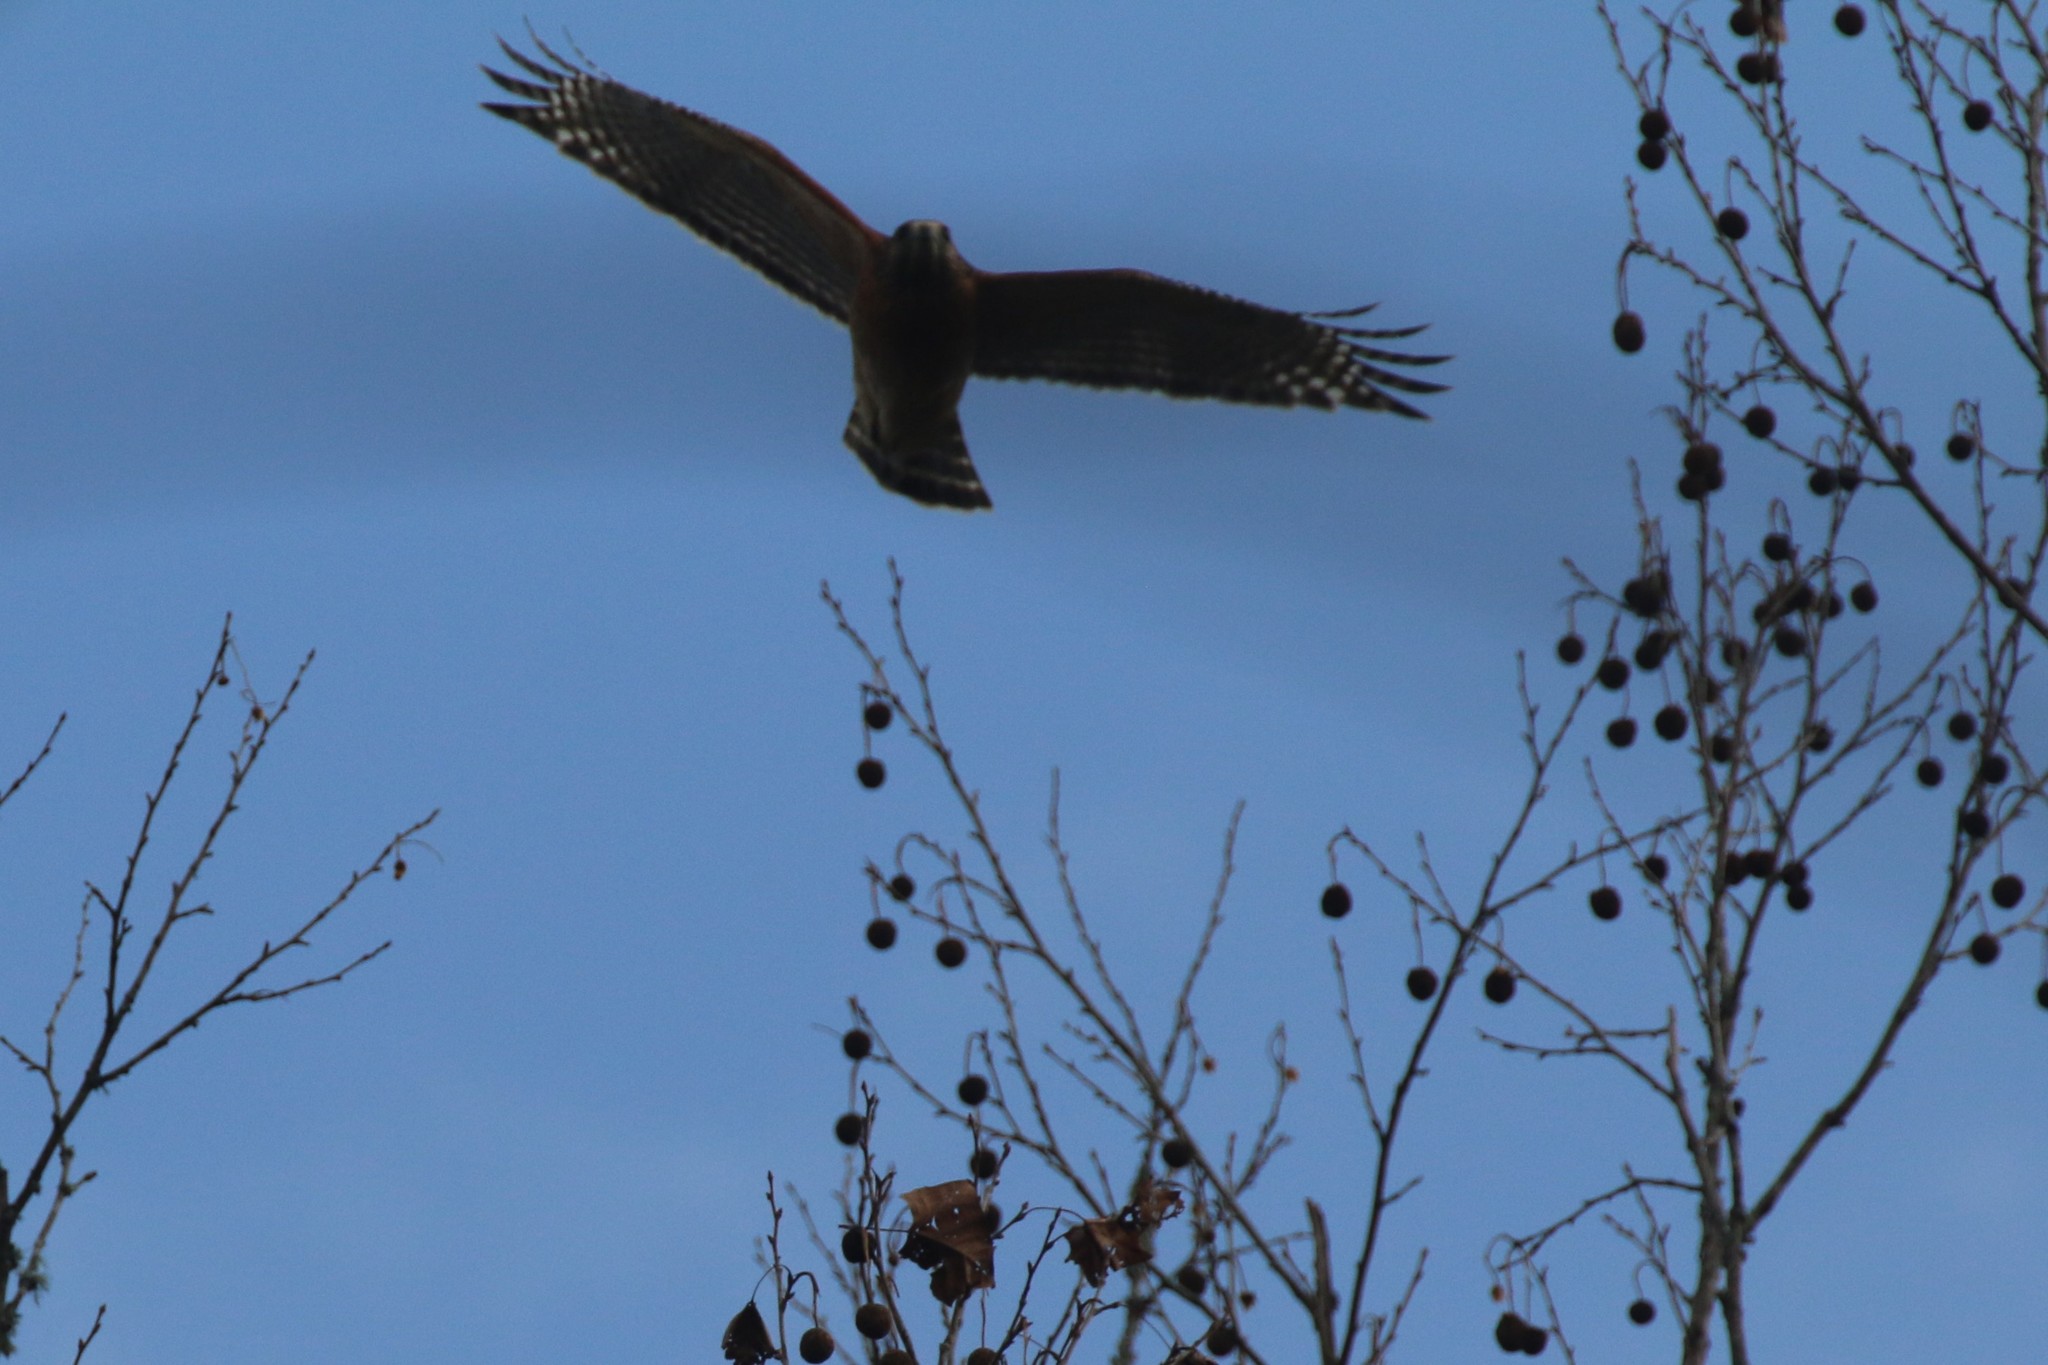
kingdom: Animalia
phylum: Chordata
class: Aves
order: Accipitriformes
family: Accipitridae
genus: Buteo
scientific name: Buteo lineatus
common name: Red-shouldered hawk
